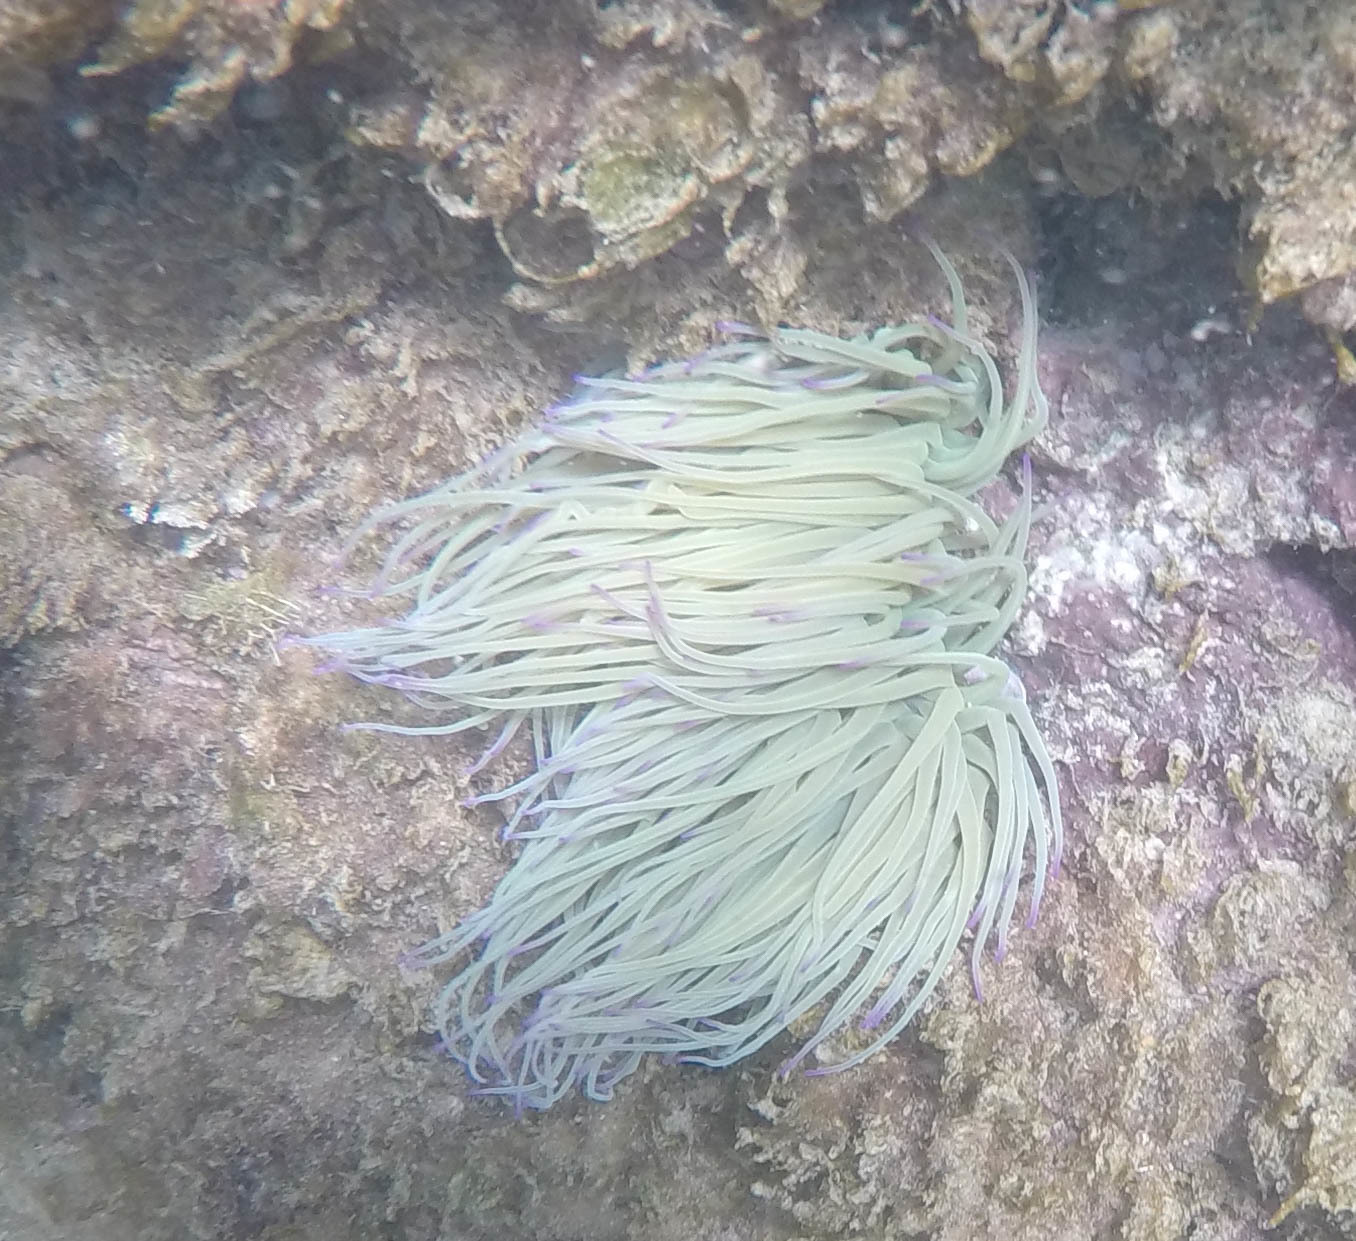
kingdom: Animalia
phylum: Cnidaria
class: Anthozoa
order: Actiniaria
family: Actiniidae
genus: Anemonia
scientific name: Anemonia viridis
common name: Snakelocks anemone
